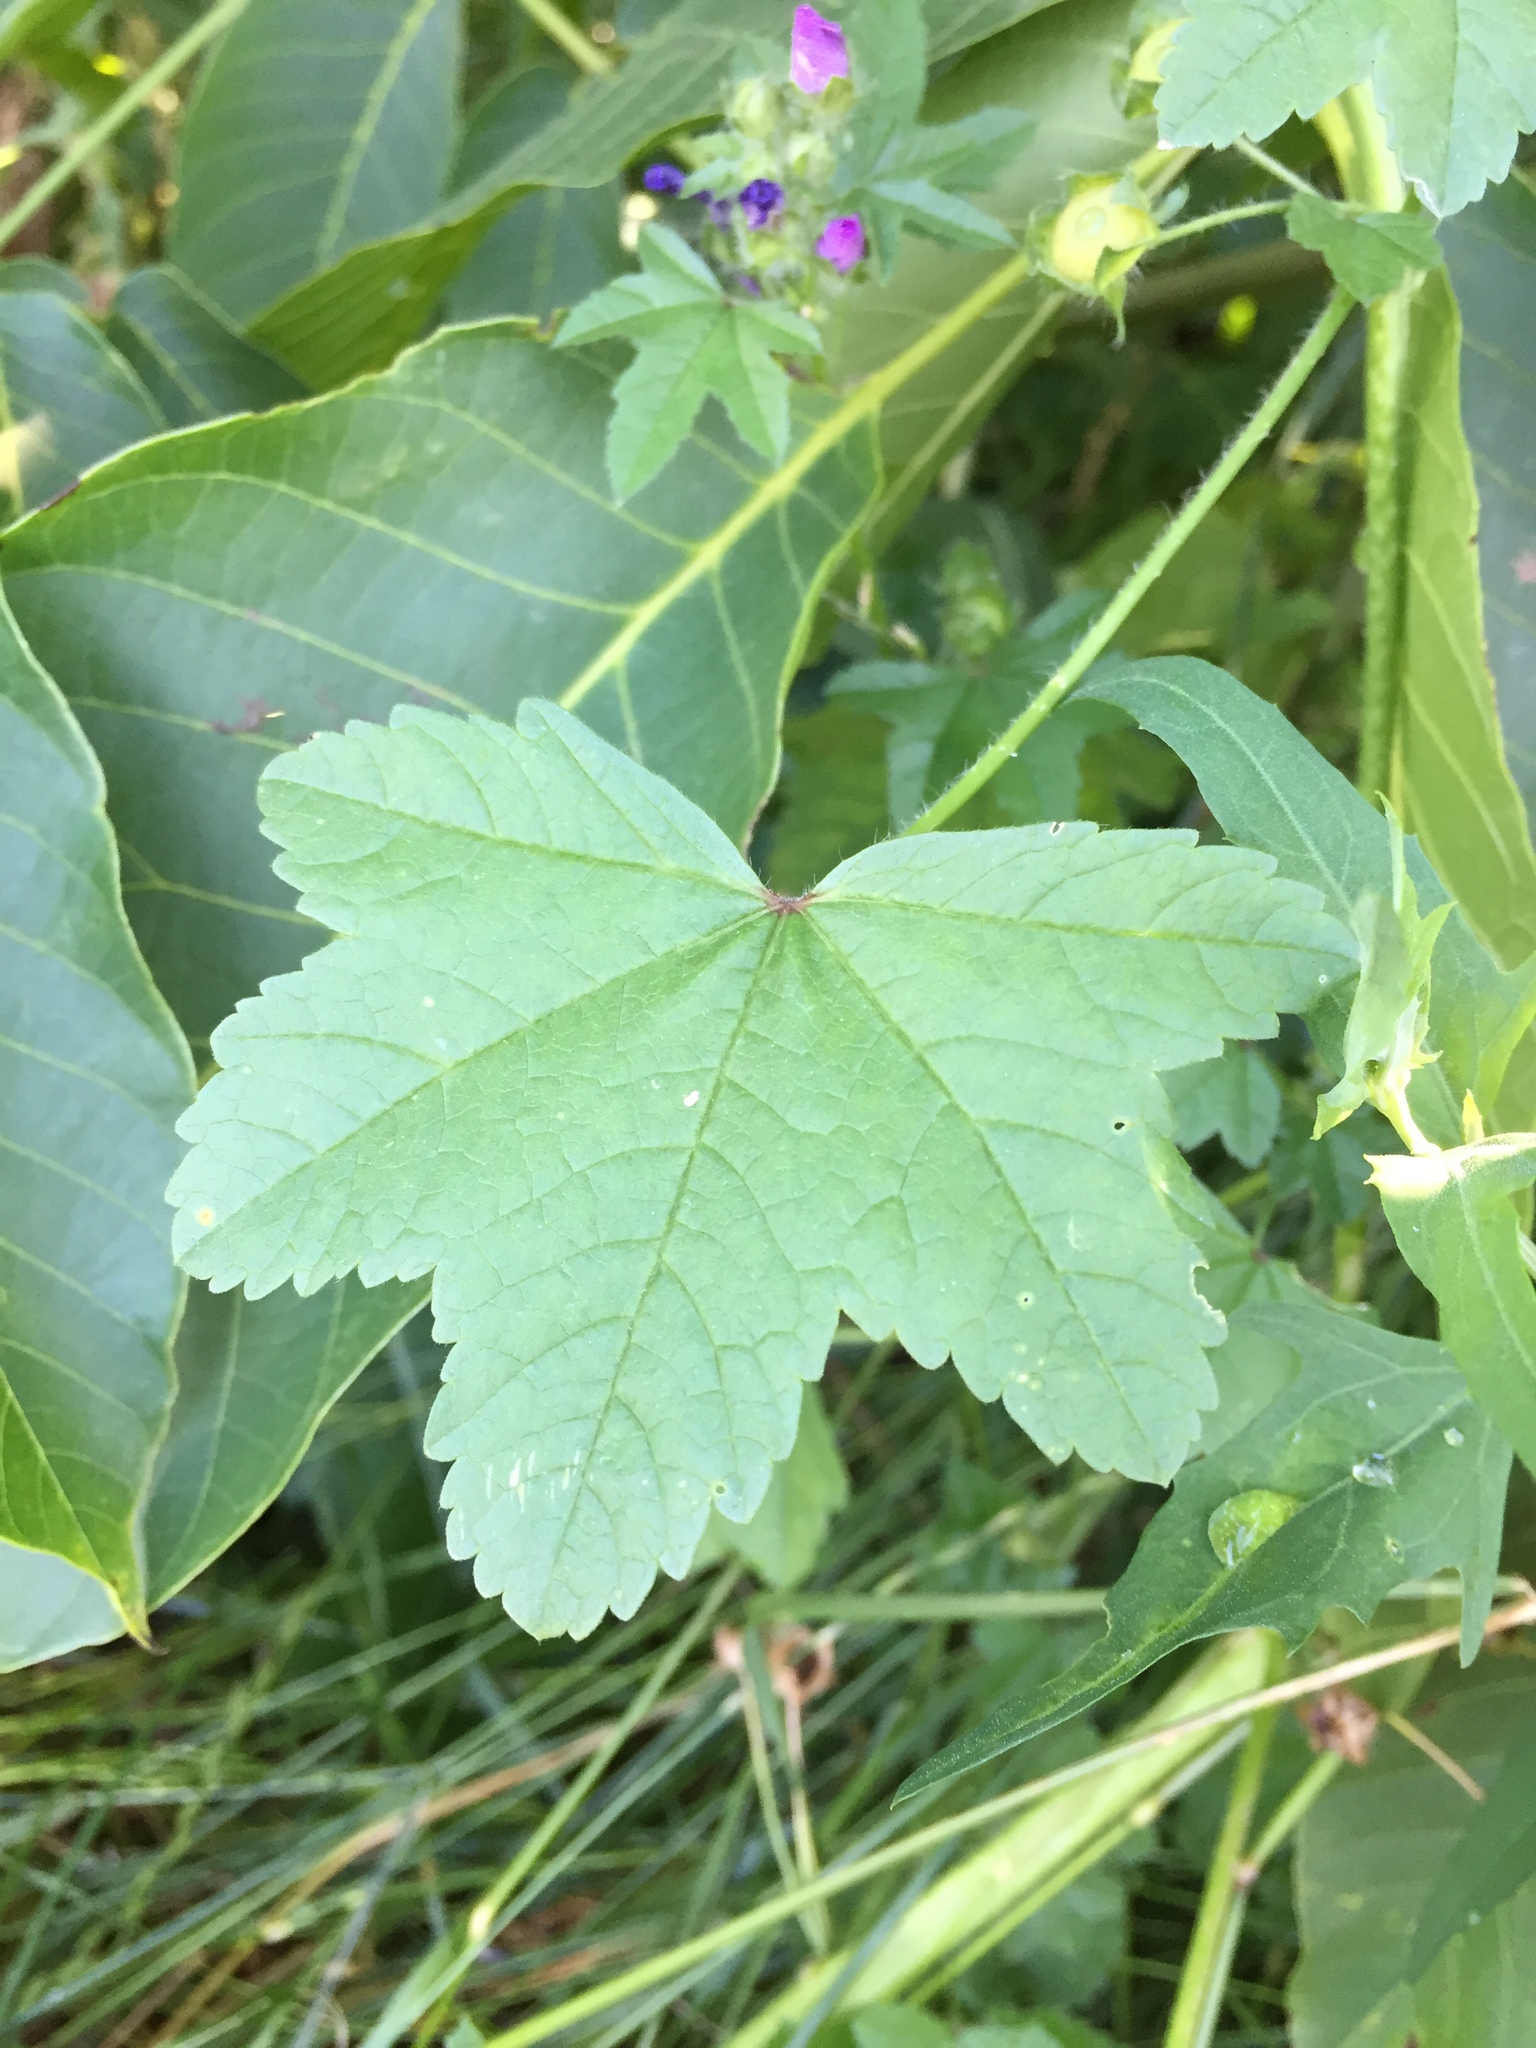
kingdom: Plantae
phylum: Tracheophyta
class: Magnoliopsida
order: Malvales
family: Malvaceae
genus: Malva
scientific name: Malva sylvestris
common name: Common mallow
